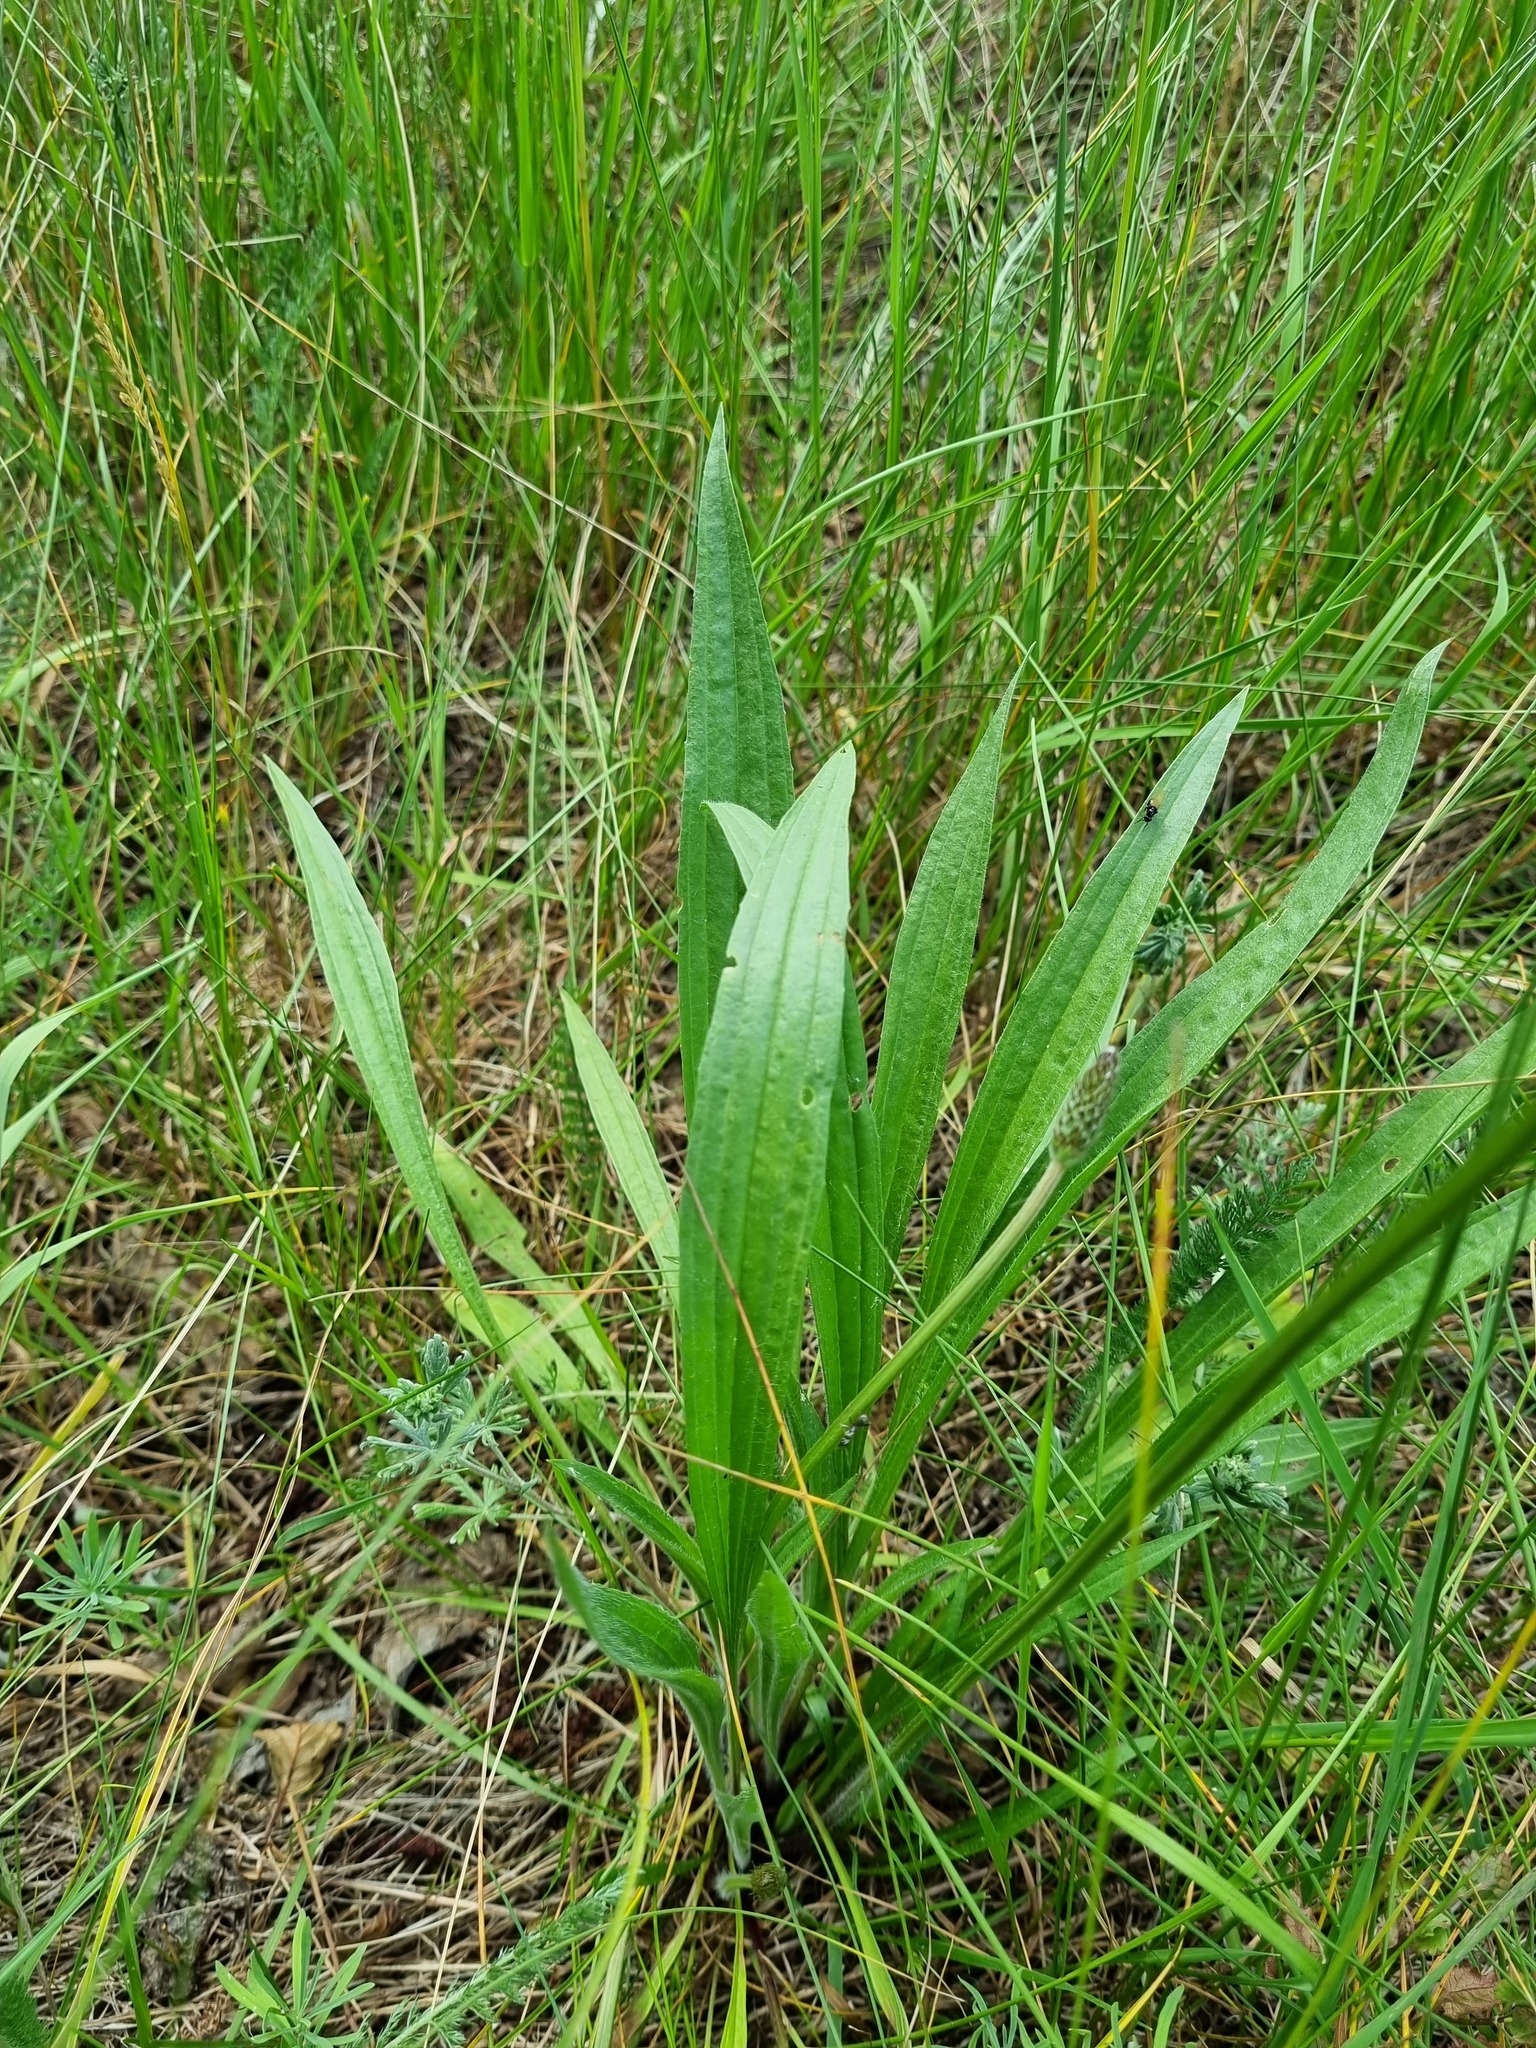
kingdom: Plantae
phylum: Tracheophyta
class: Magnoliopsida
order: Lamiales
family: Plantaginaceae
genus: Plantago
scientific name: Plantago lanceolata
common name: Ribwort plantain
